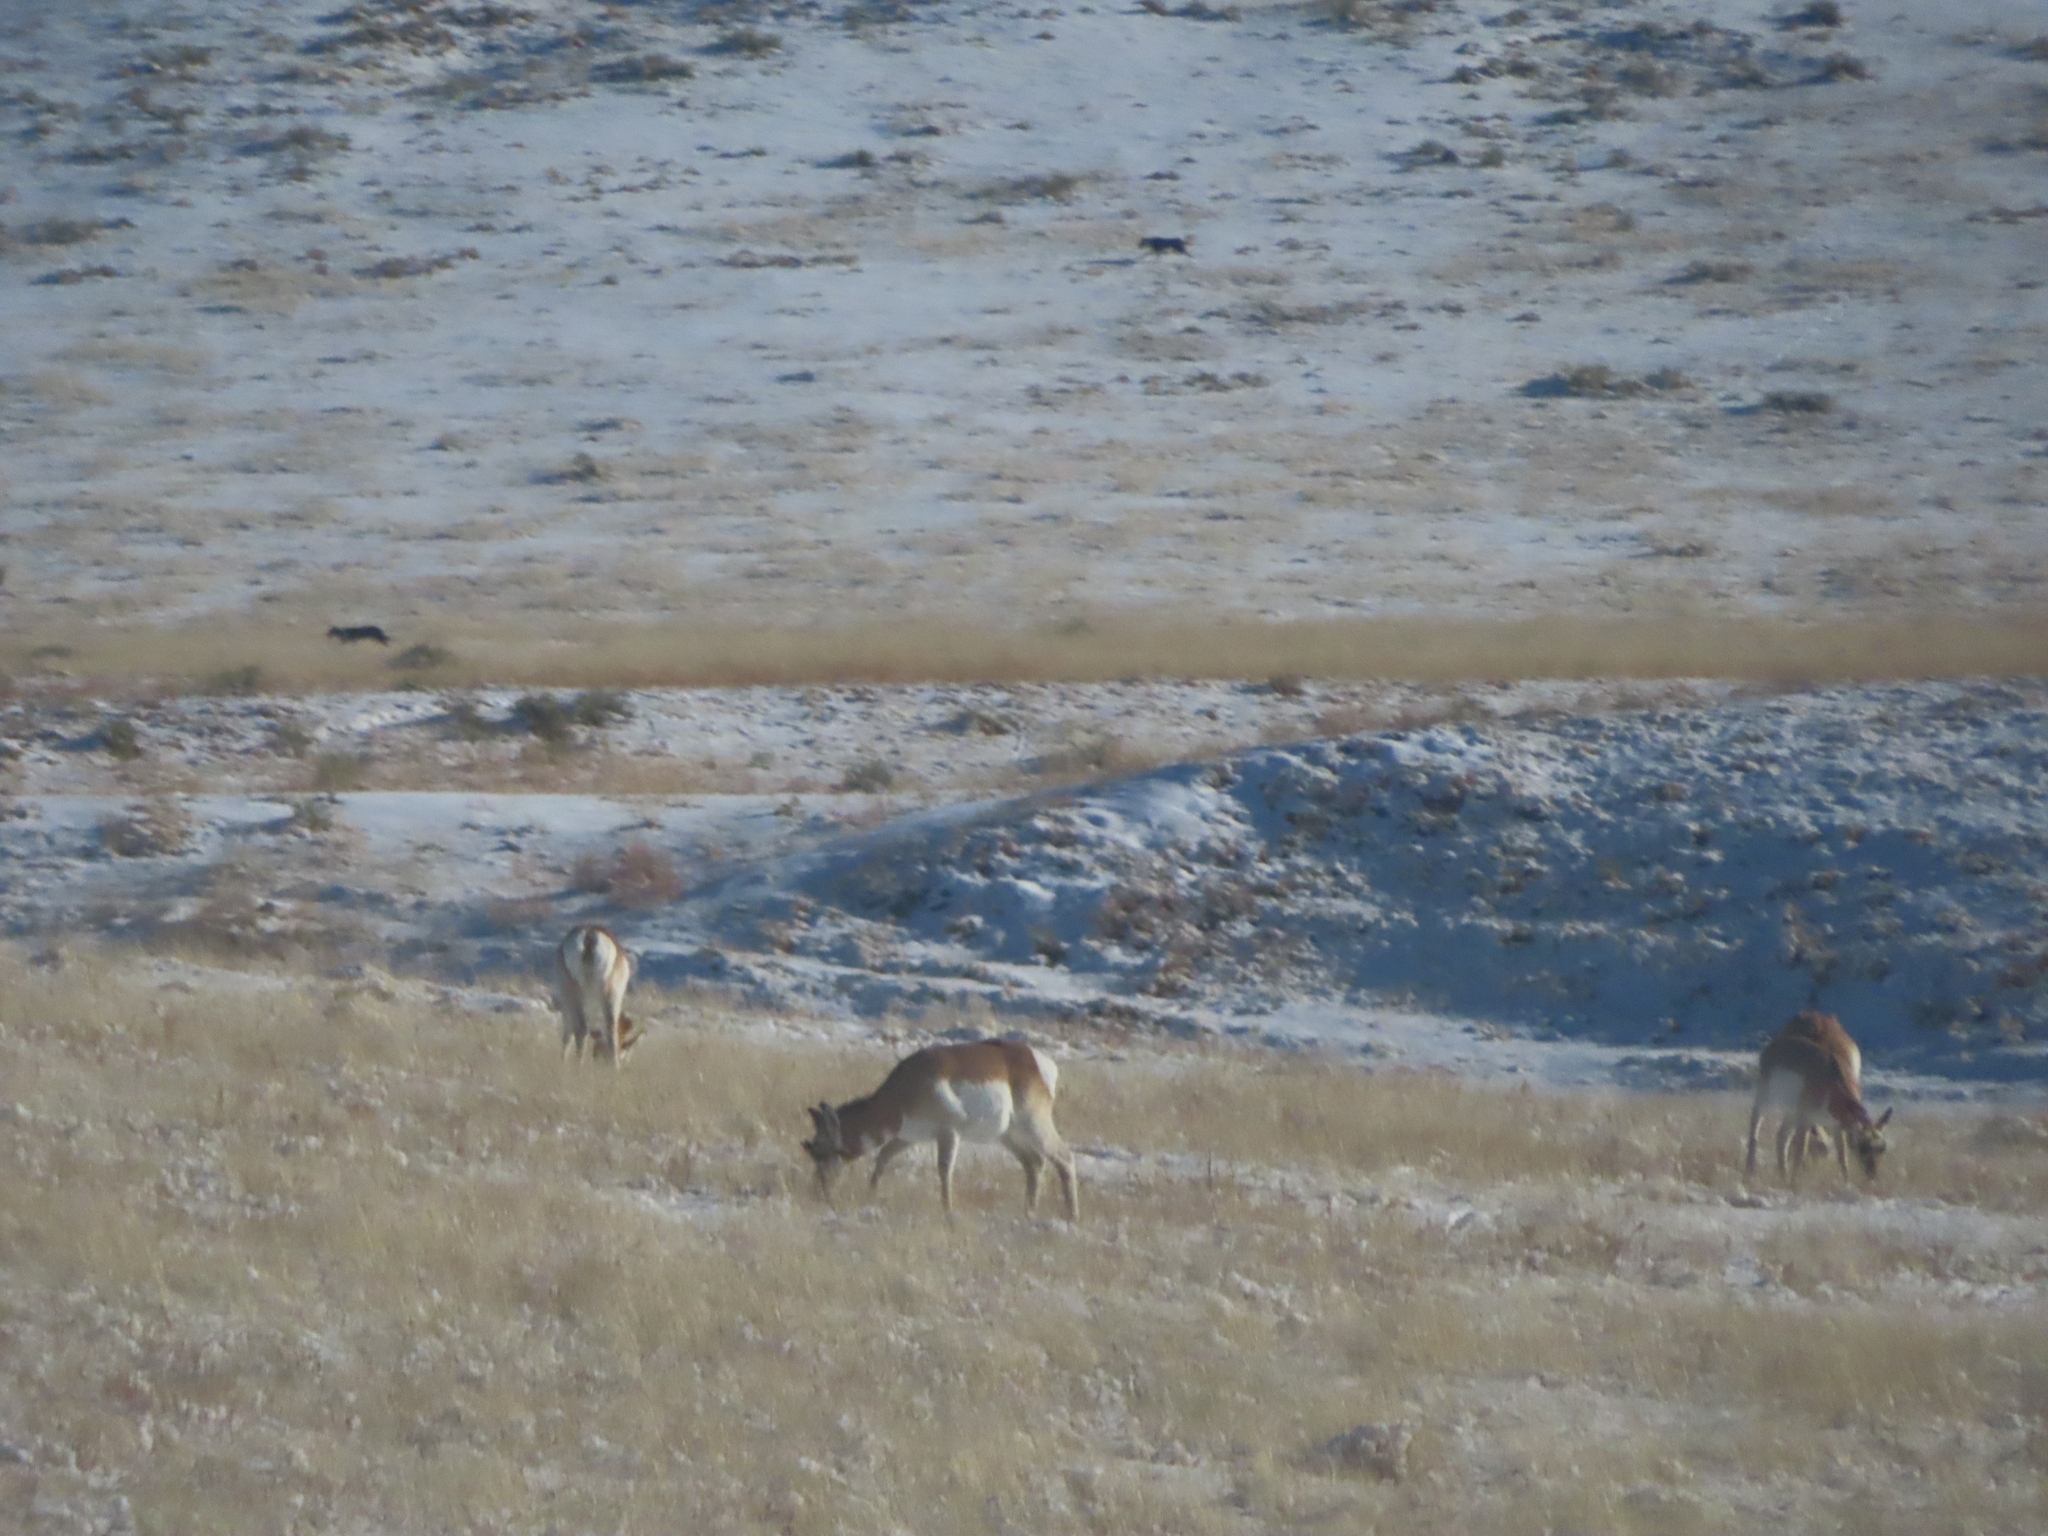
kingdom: Animalia
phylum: Chordata
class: Mammalia
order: Artiodactyla
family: Antilocapridae
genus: Antilocapra
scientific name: Antilocapra americana
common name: Pronghorn
